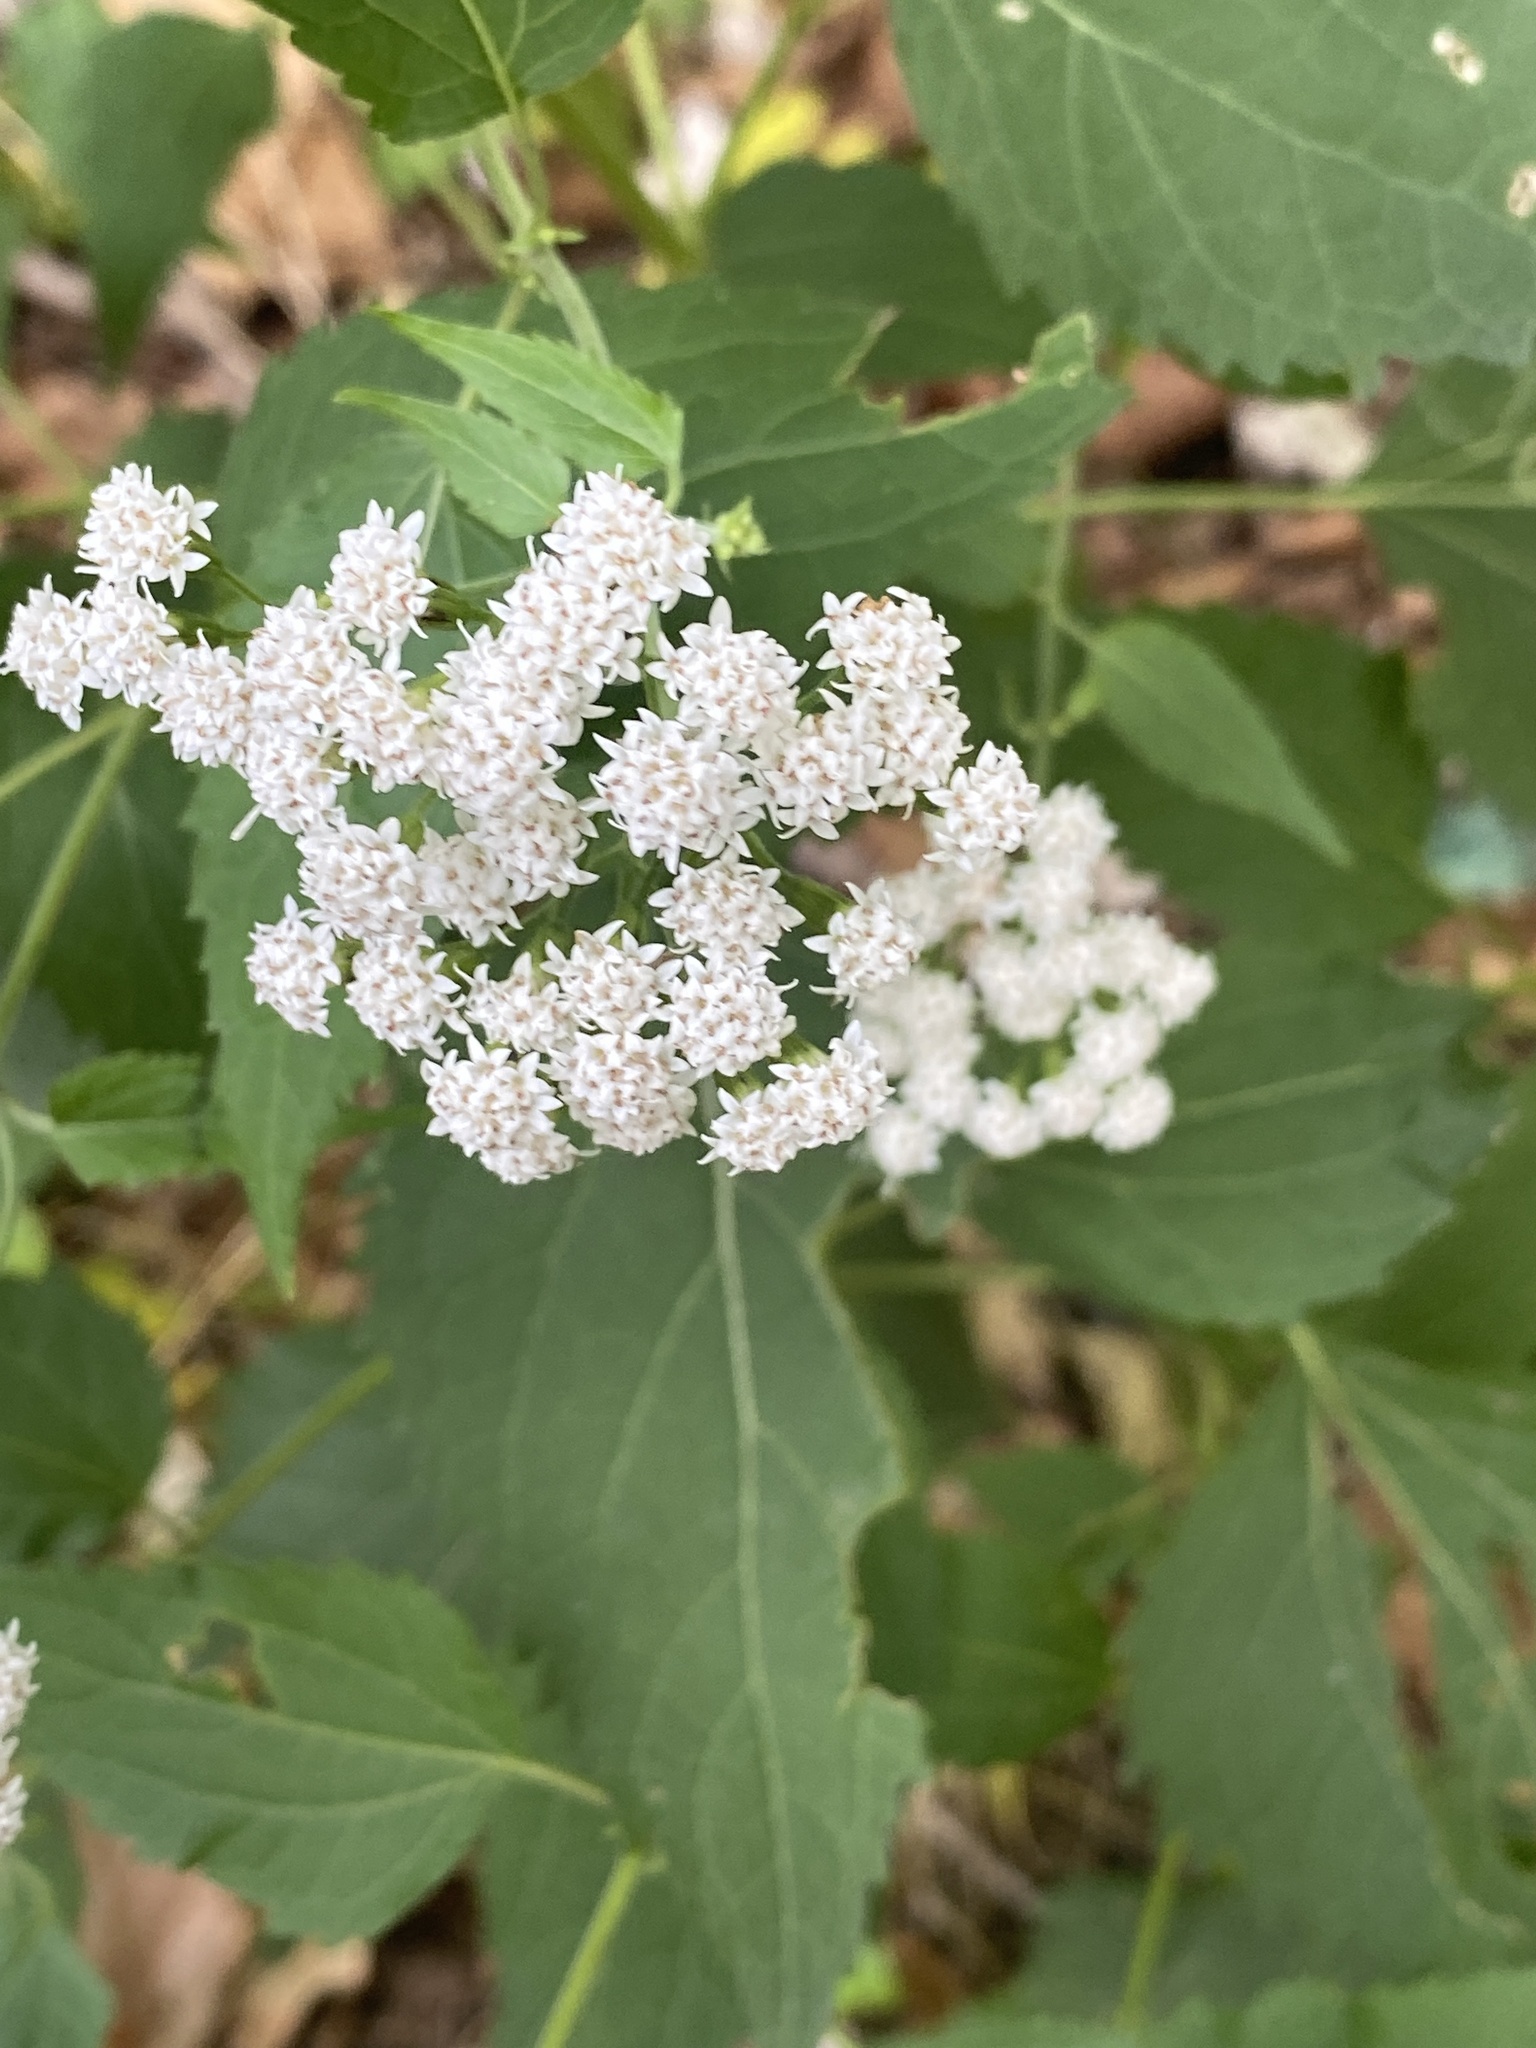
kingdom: Plantae
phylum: Tracheophyta
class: Magnoliopsida
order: Asterales
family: Asteraceae
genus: Ageratina
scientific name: Ageratina altissima
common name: White snakeroot
